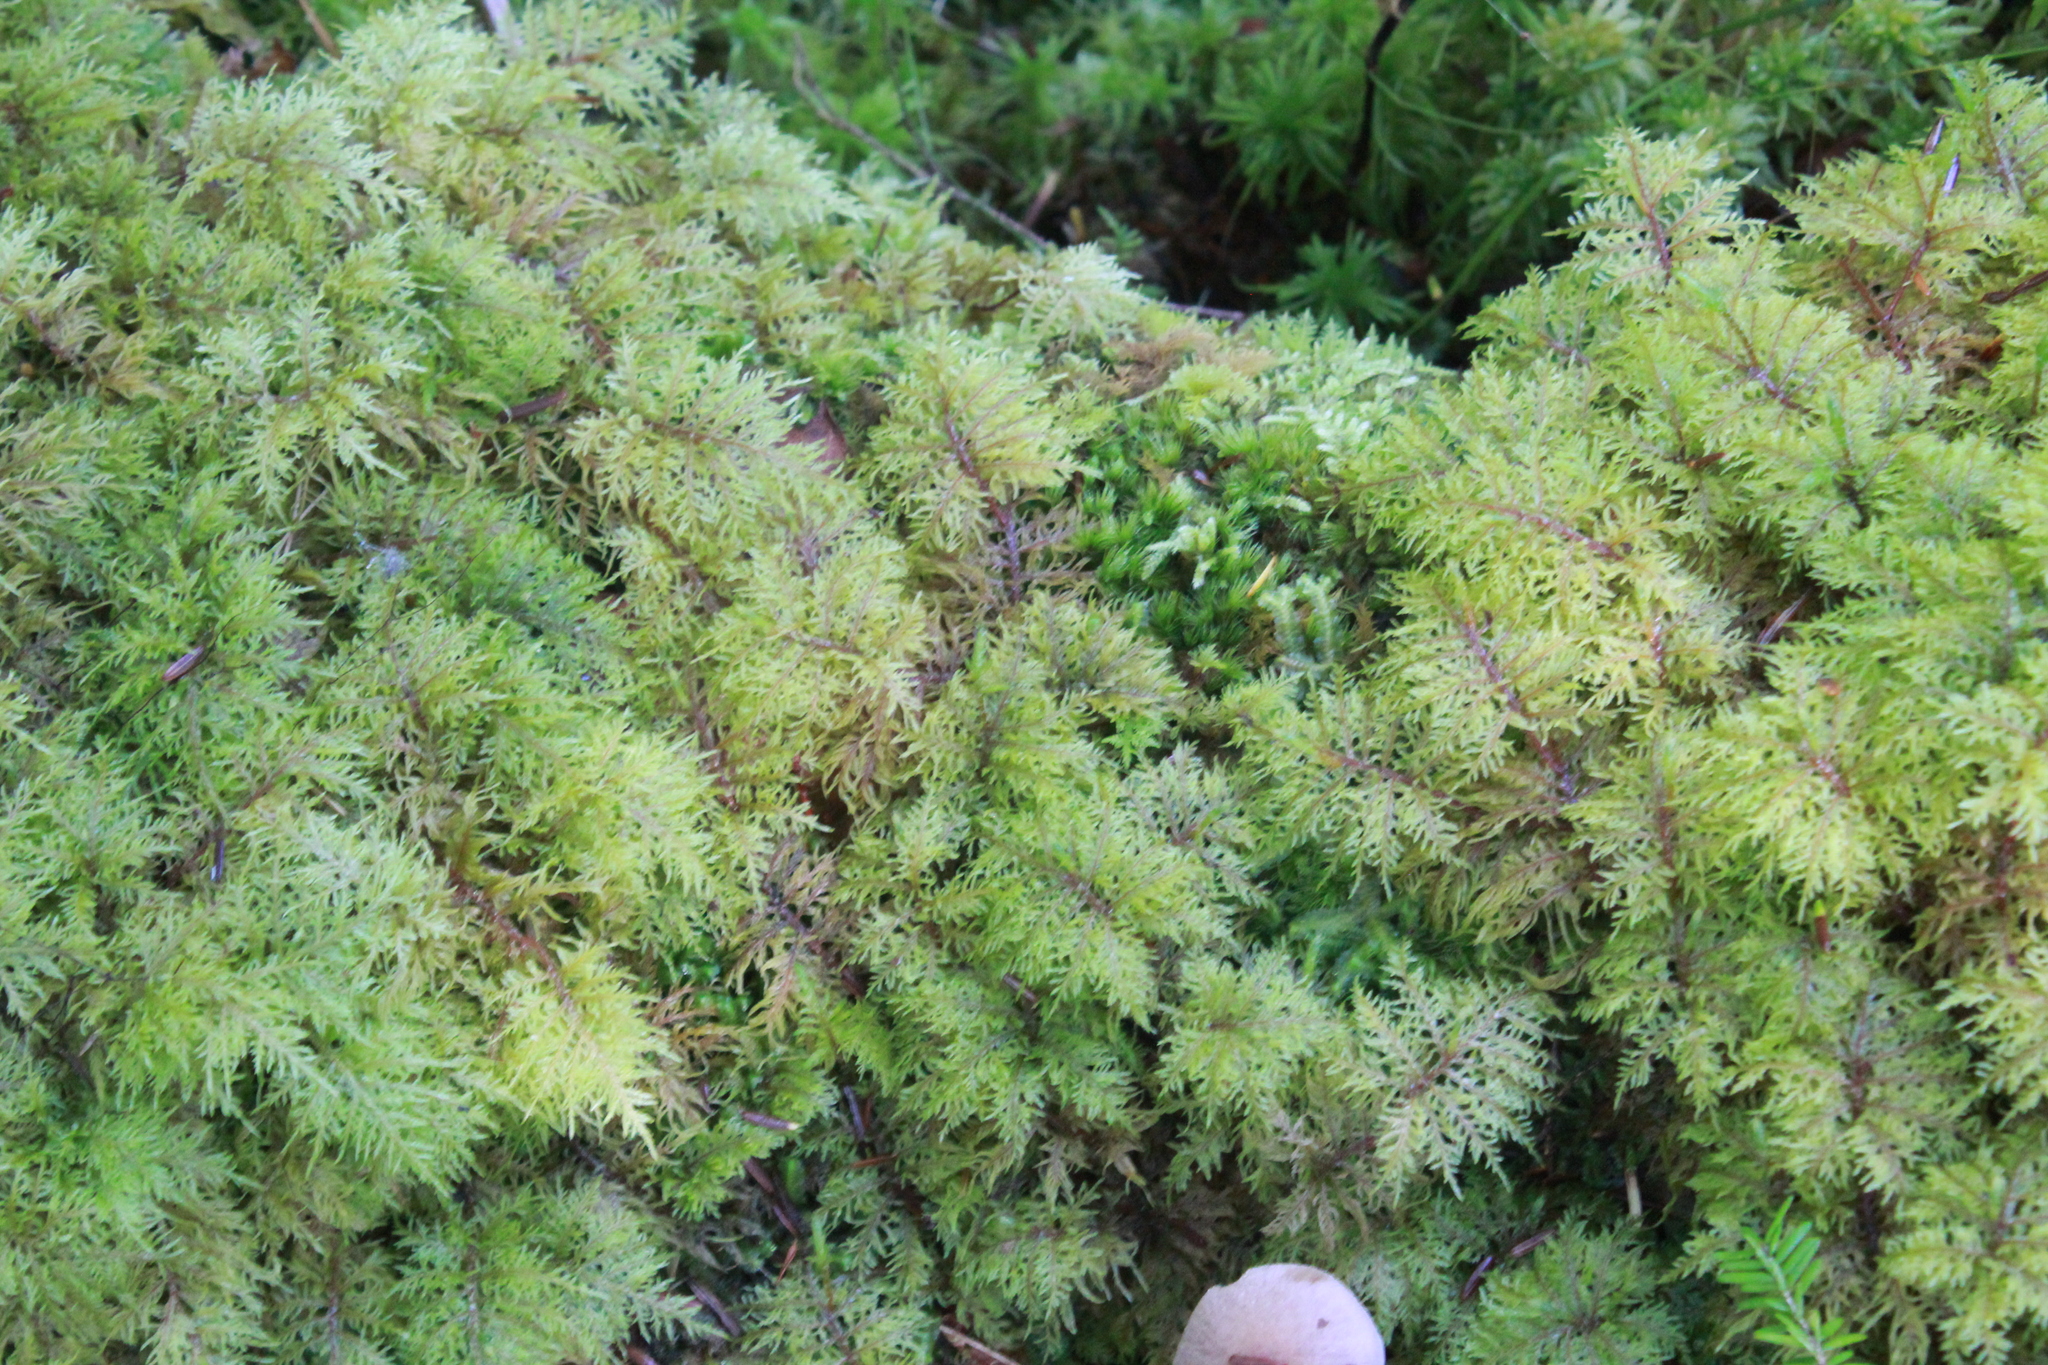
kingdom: Plantae
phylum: Bryophyta
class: Bryopsida
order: Hypnales
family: Hylocomiaceae
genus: Hylocomium
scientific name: Hylocomium splendens
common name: Stairstep moss
